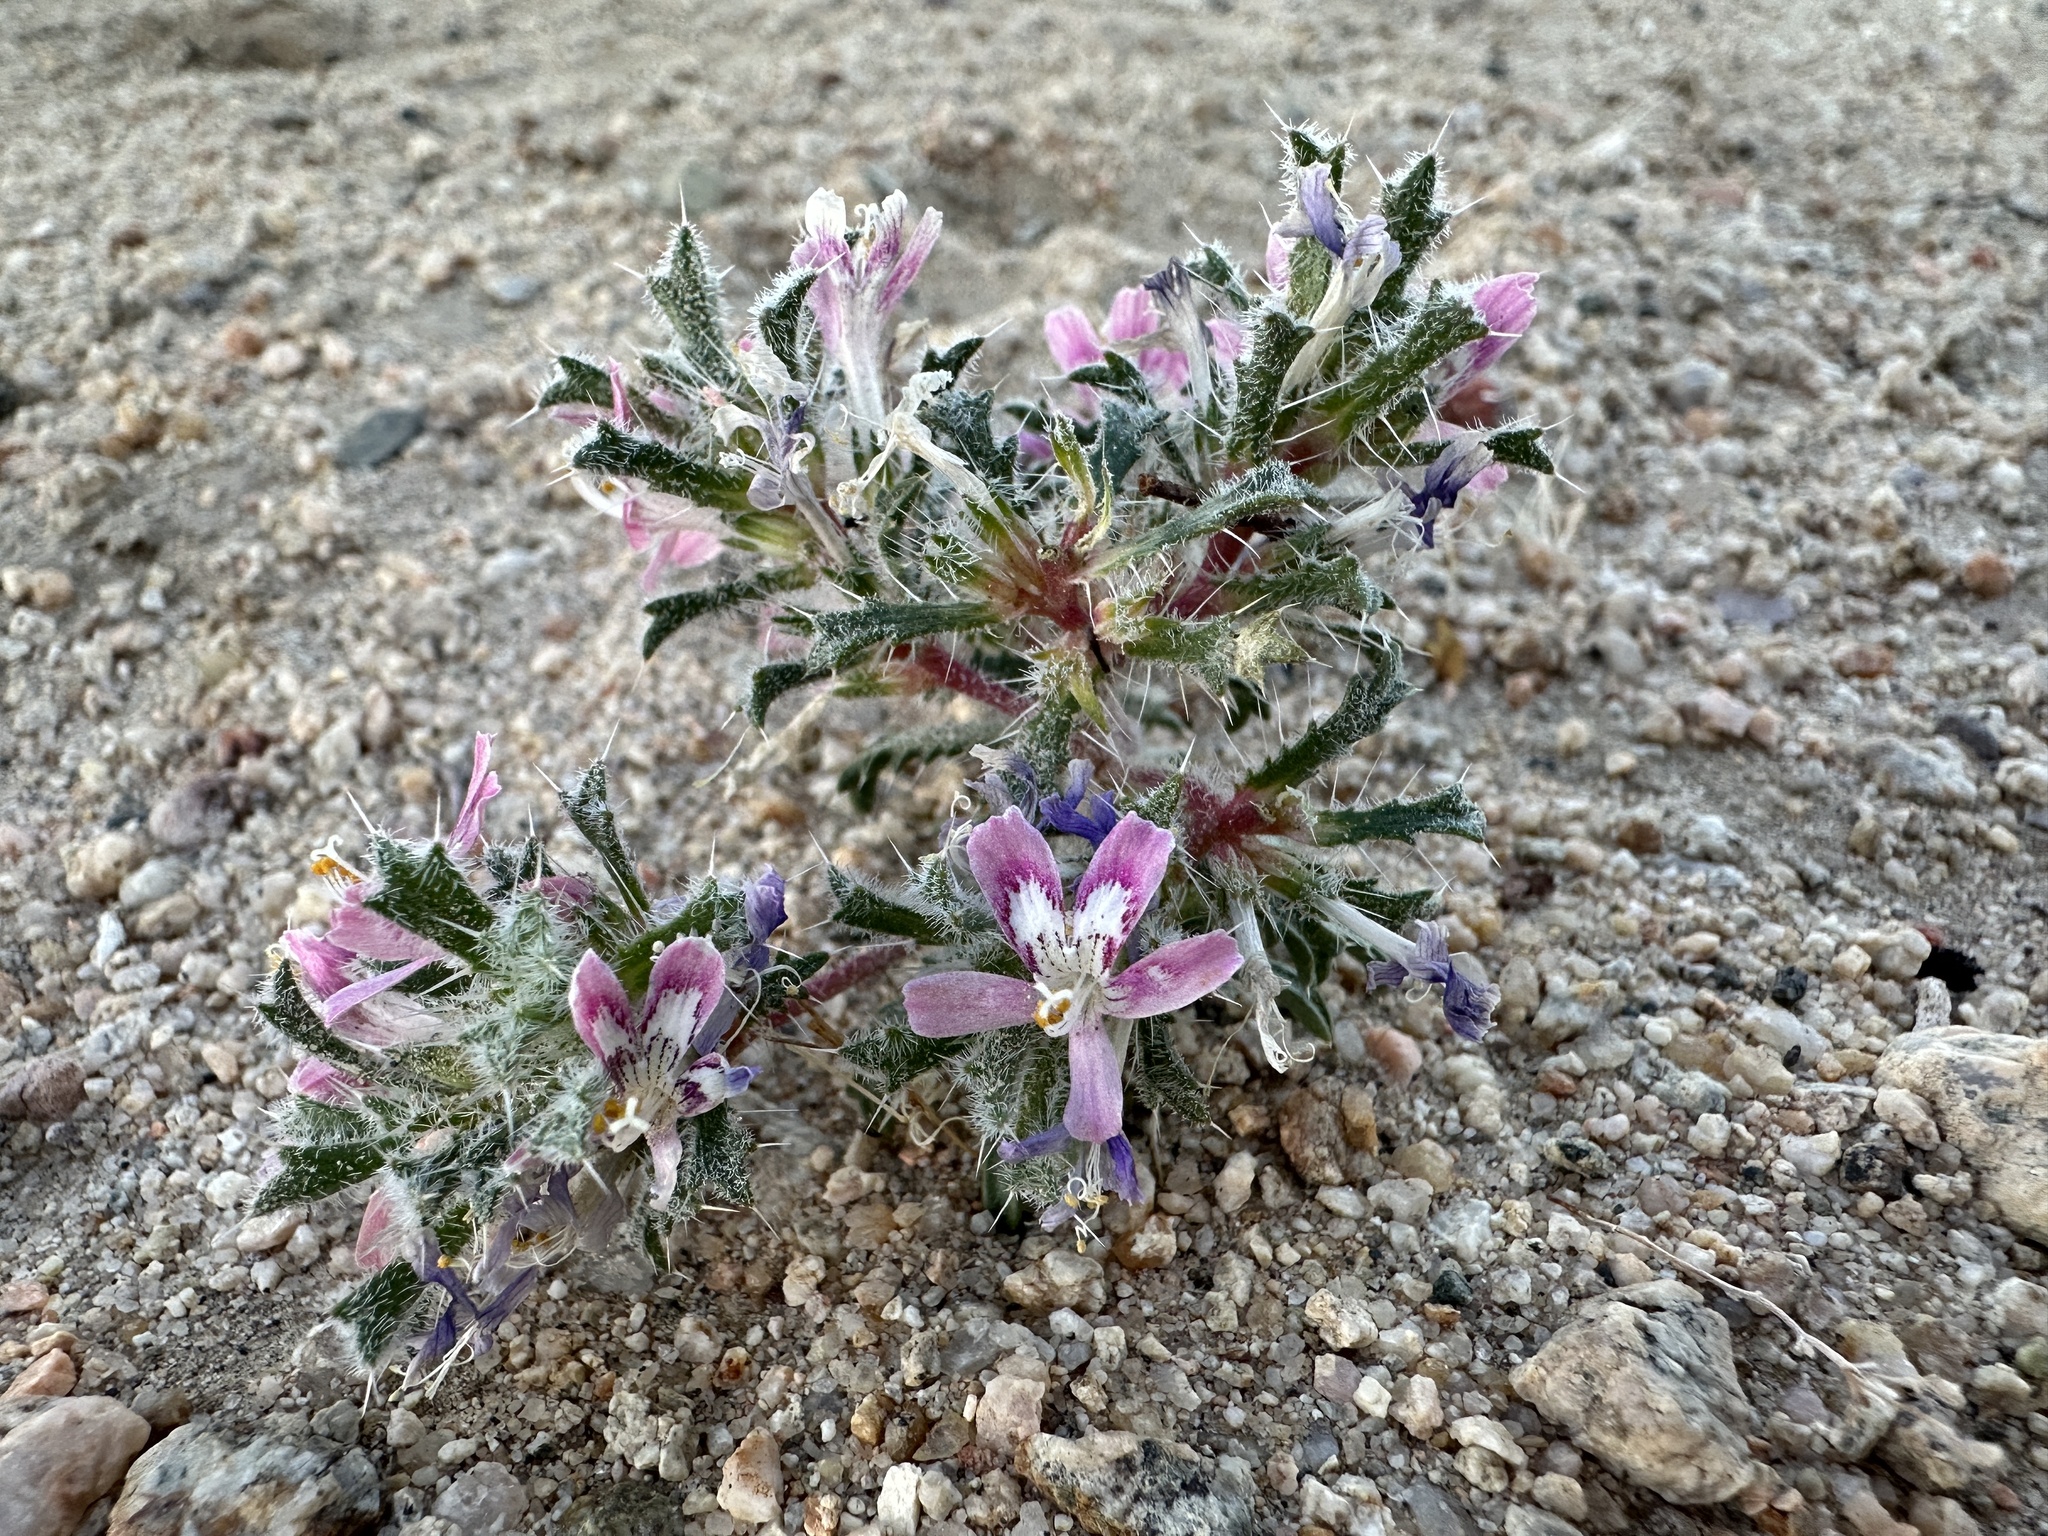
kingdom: Plantae
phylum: Tracheophyta
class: Magnoliopsida
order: Ericales
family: Polemoniaceae
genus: Loeseliastrum
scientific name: Loeseliastrum matthewsii
